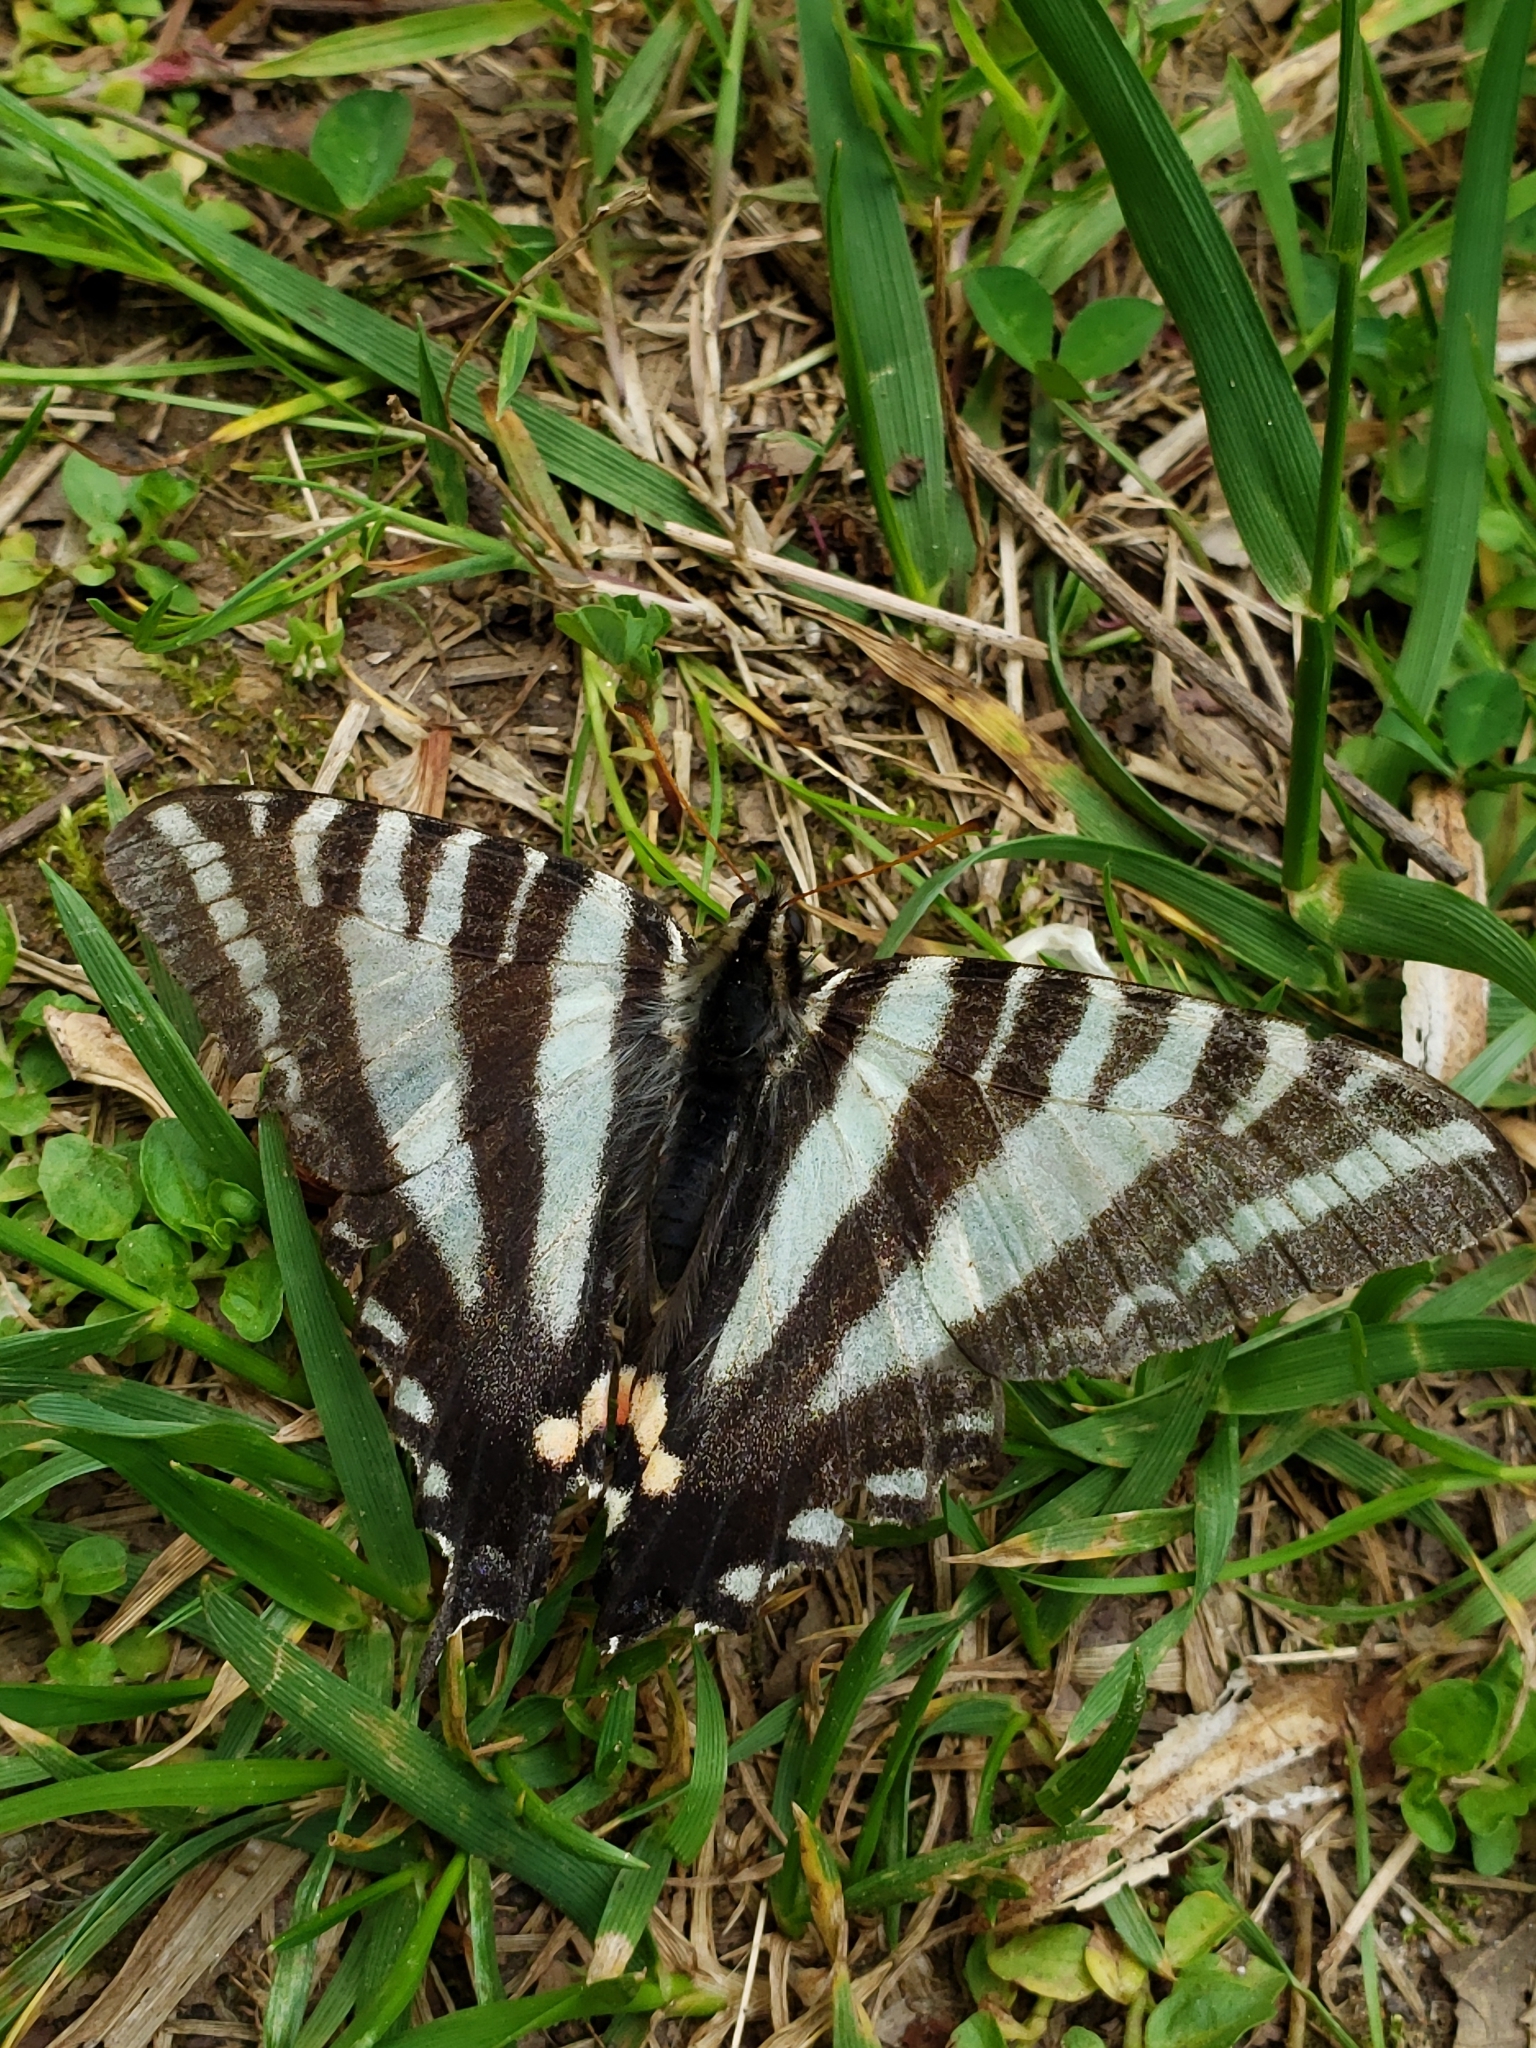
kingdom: Animalia
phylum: Arthropoda
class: Insecta
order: Lepidoptera
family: Papilionidae
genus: Protographium
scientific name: Protographium marcellus
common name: Zebra swallowtail
